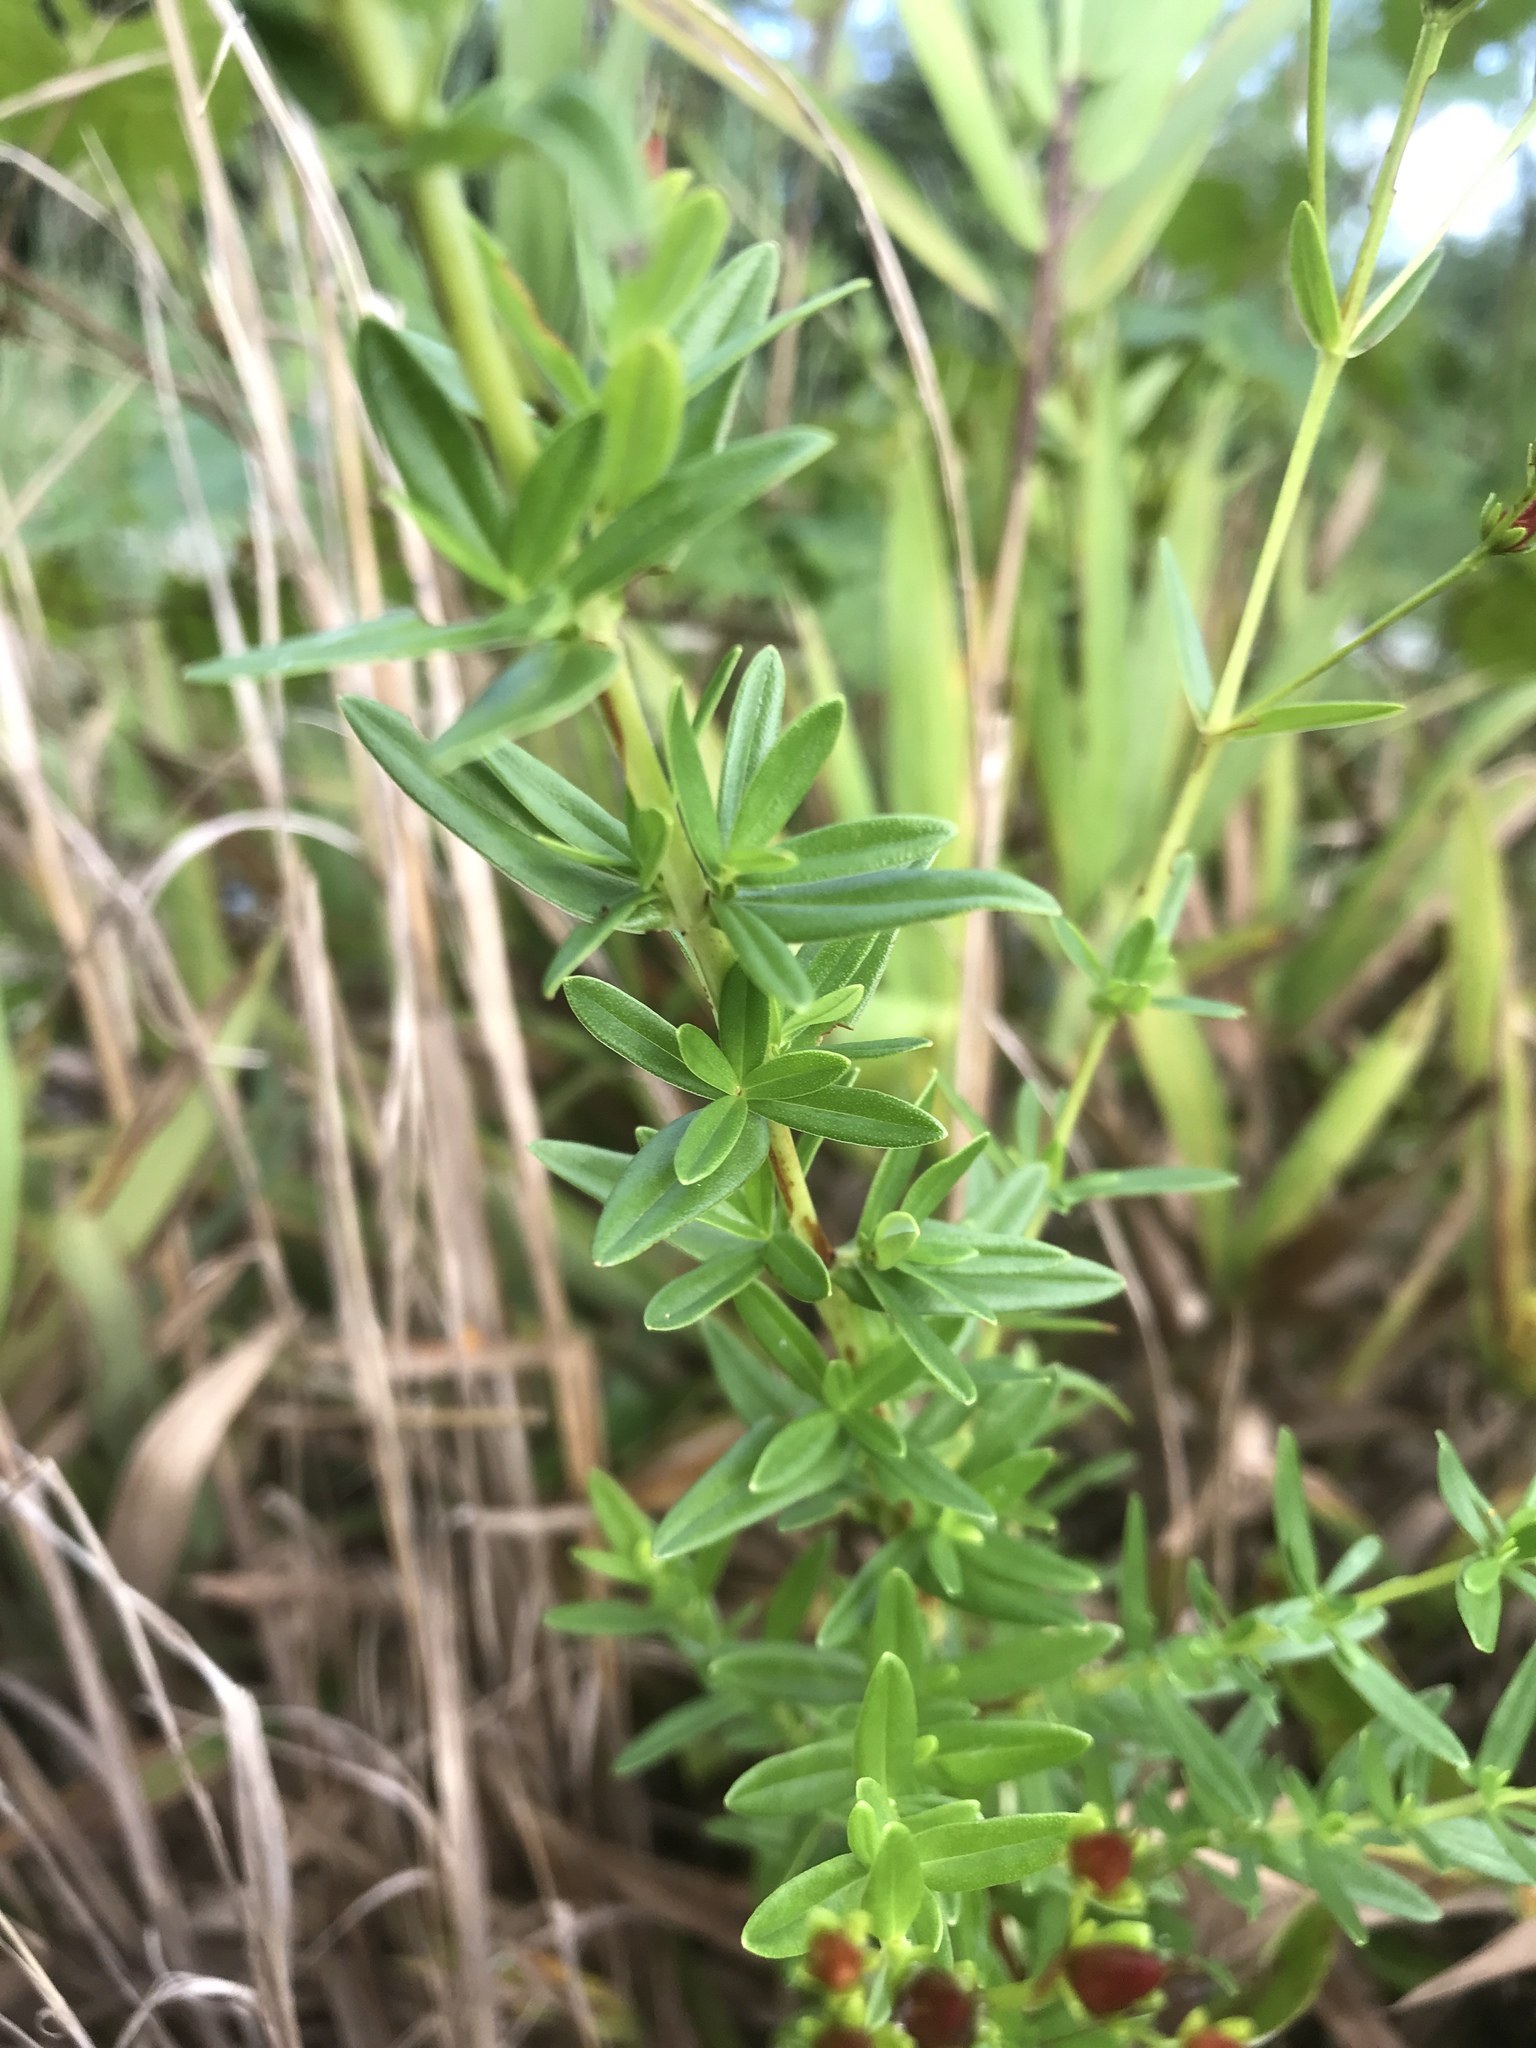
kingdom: Plantae
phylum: Tracheophyta
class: Magnoliopsida
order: Malpighiales
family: Hypericaceae
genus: Hypericum
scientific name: Hypericum cistifolium
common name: Round-pod st. john's-wort
